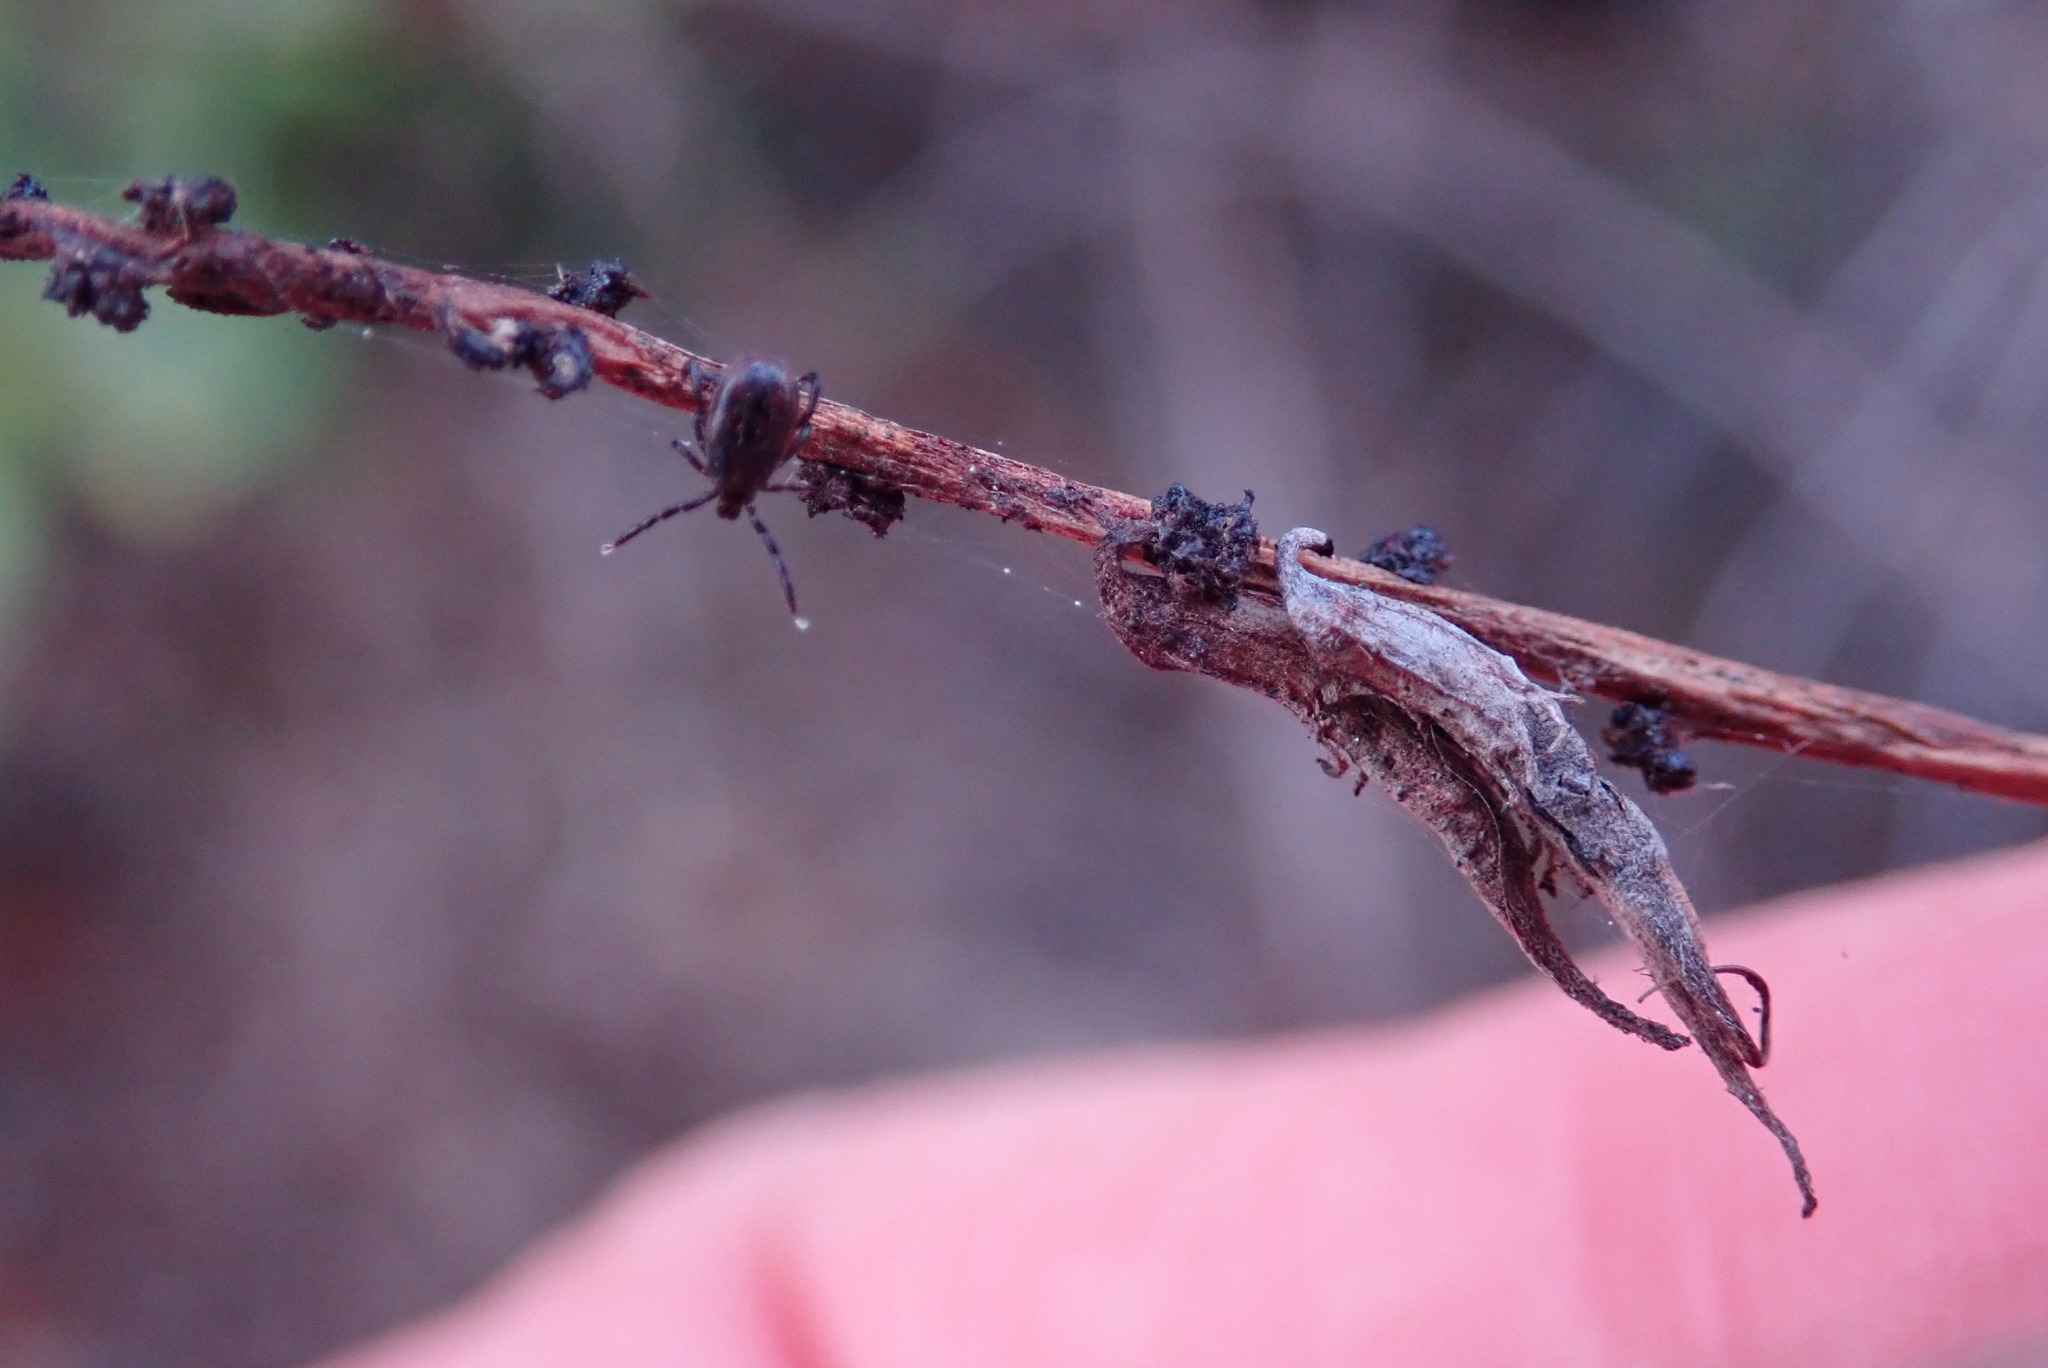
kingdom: Animalia
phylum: Arthropoda
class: Arachnida
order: Ixodida
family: Ixodidae
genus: Ixodes
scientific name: Ixodes pacificus
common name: California black-legged tick
